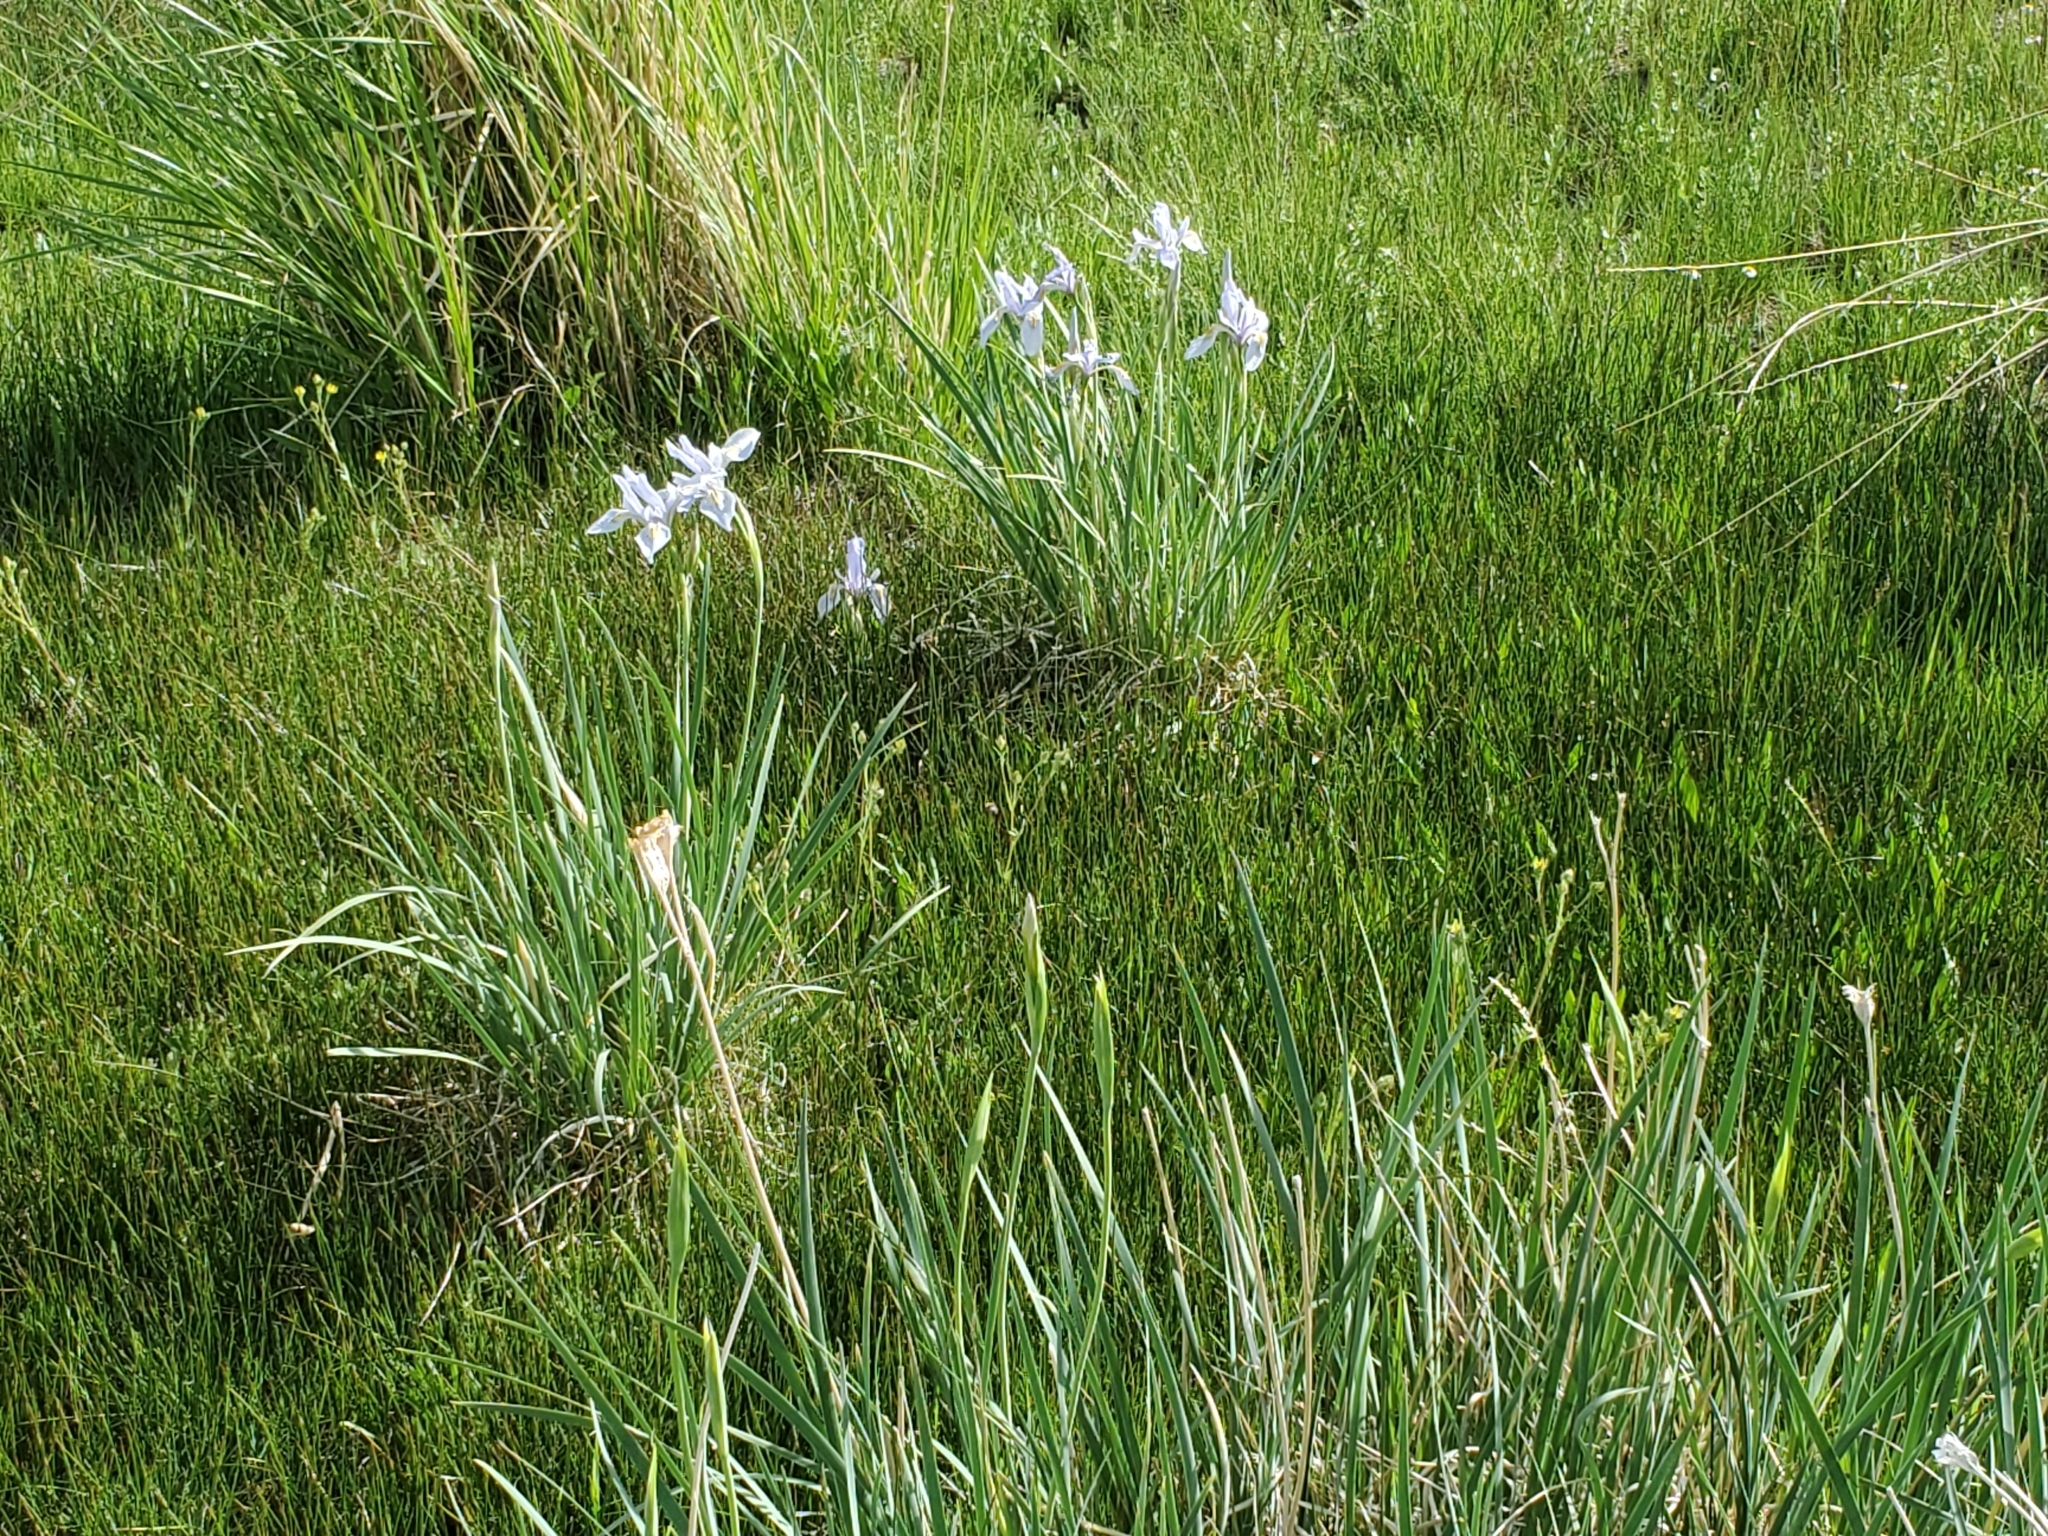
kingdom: Plantae
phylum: Tracheophyta
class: Liliopsida
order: Asparagales
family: Iridaceae
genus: Iris
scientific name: Iris missouriensis
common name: Rocky mountain iris
